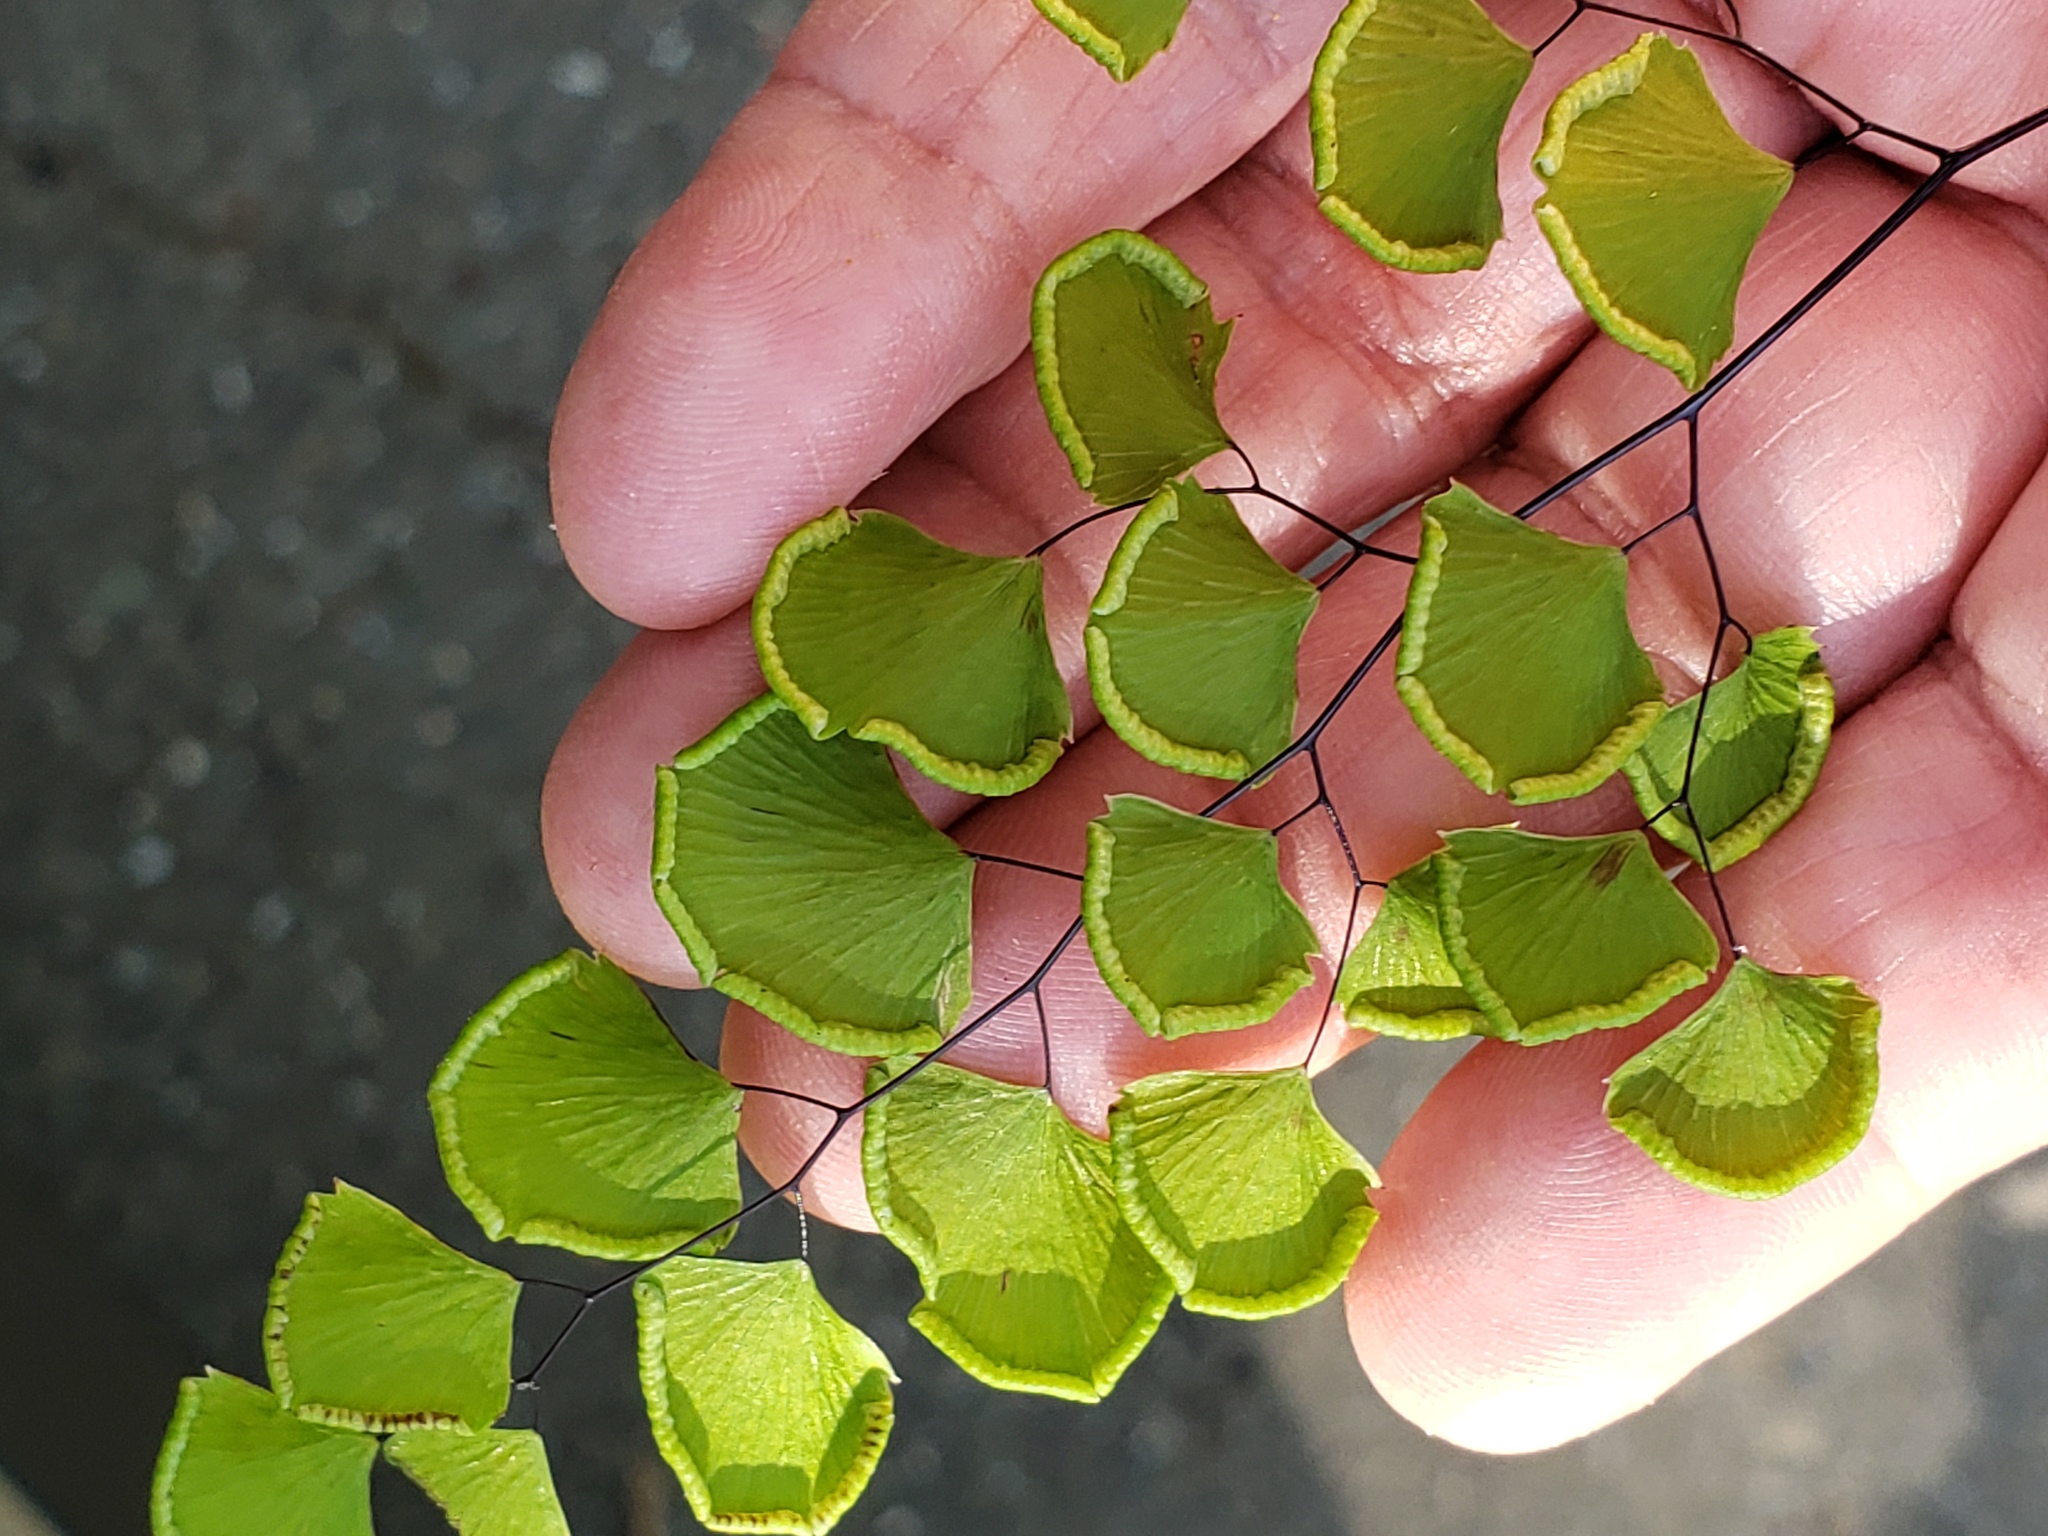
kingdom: Plantae
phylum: Tracheophyta
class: Polypodiopsida
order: Polypodiales
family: Pteridaceae
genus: Adiantum
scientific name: Adiantum jordanii
